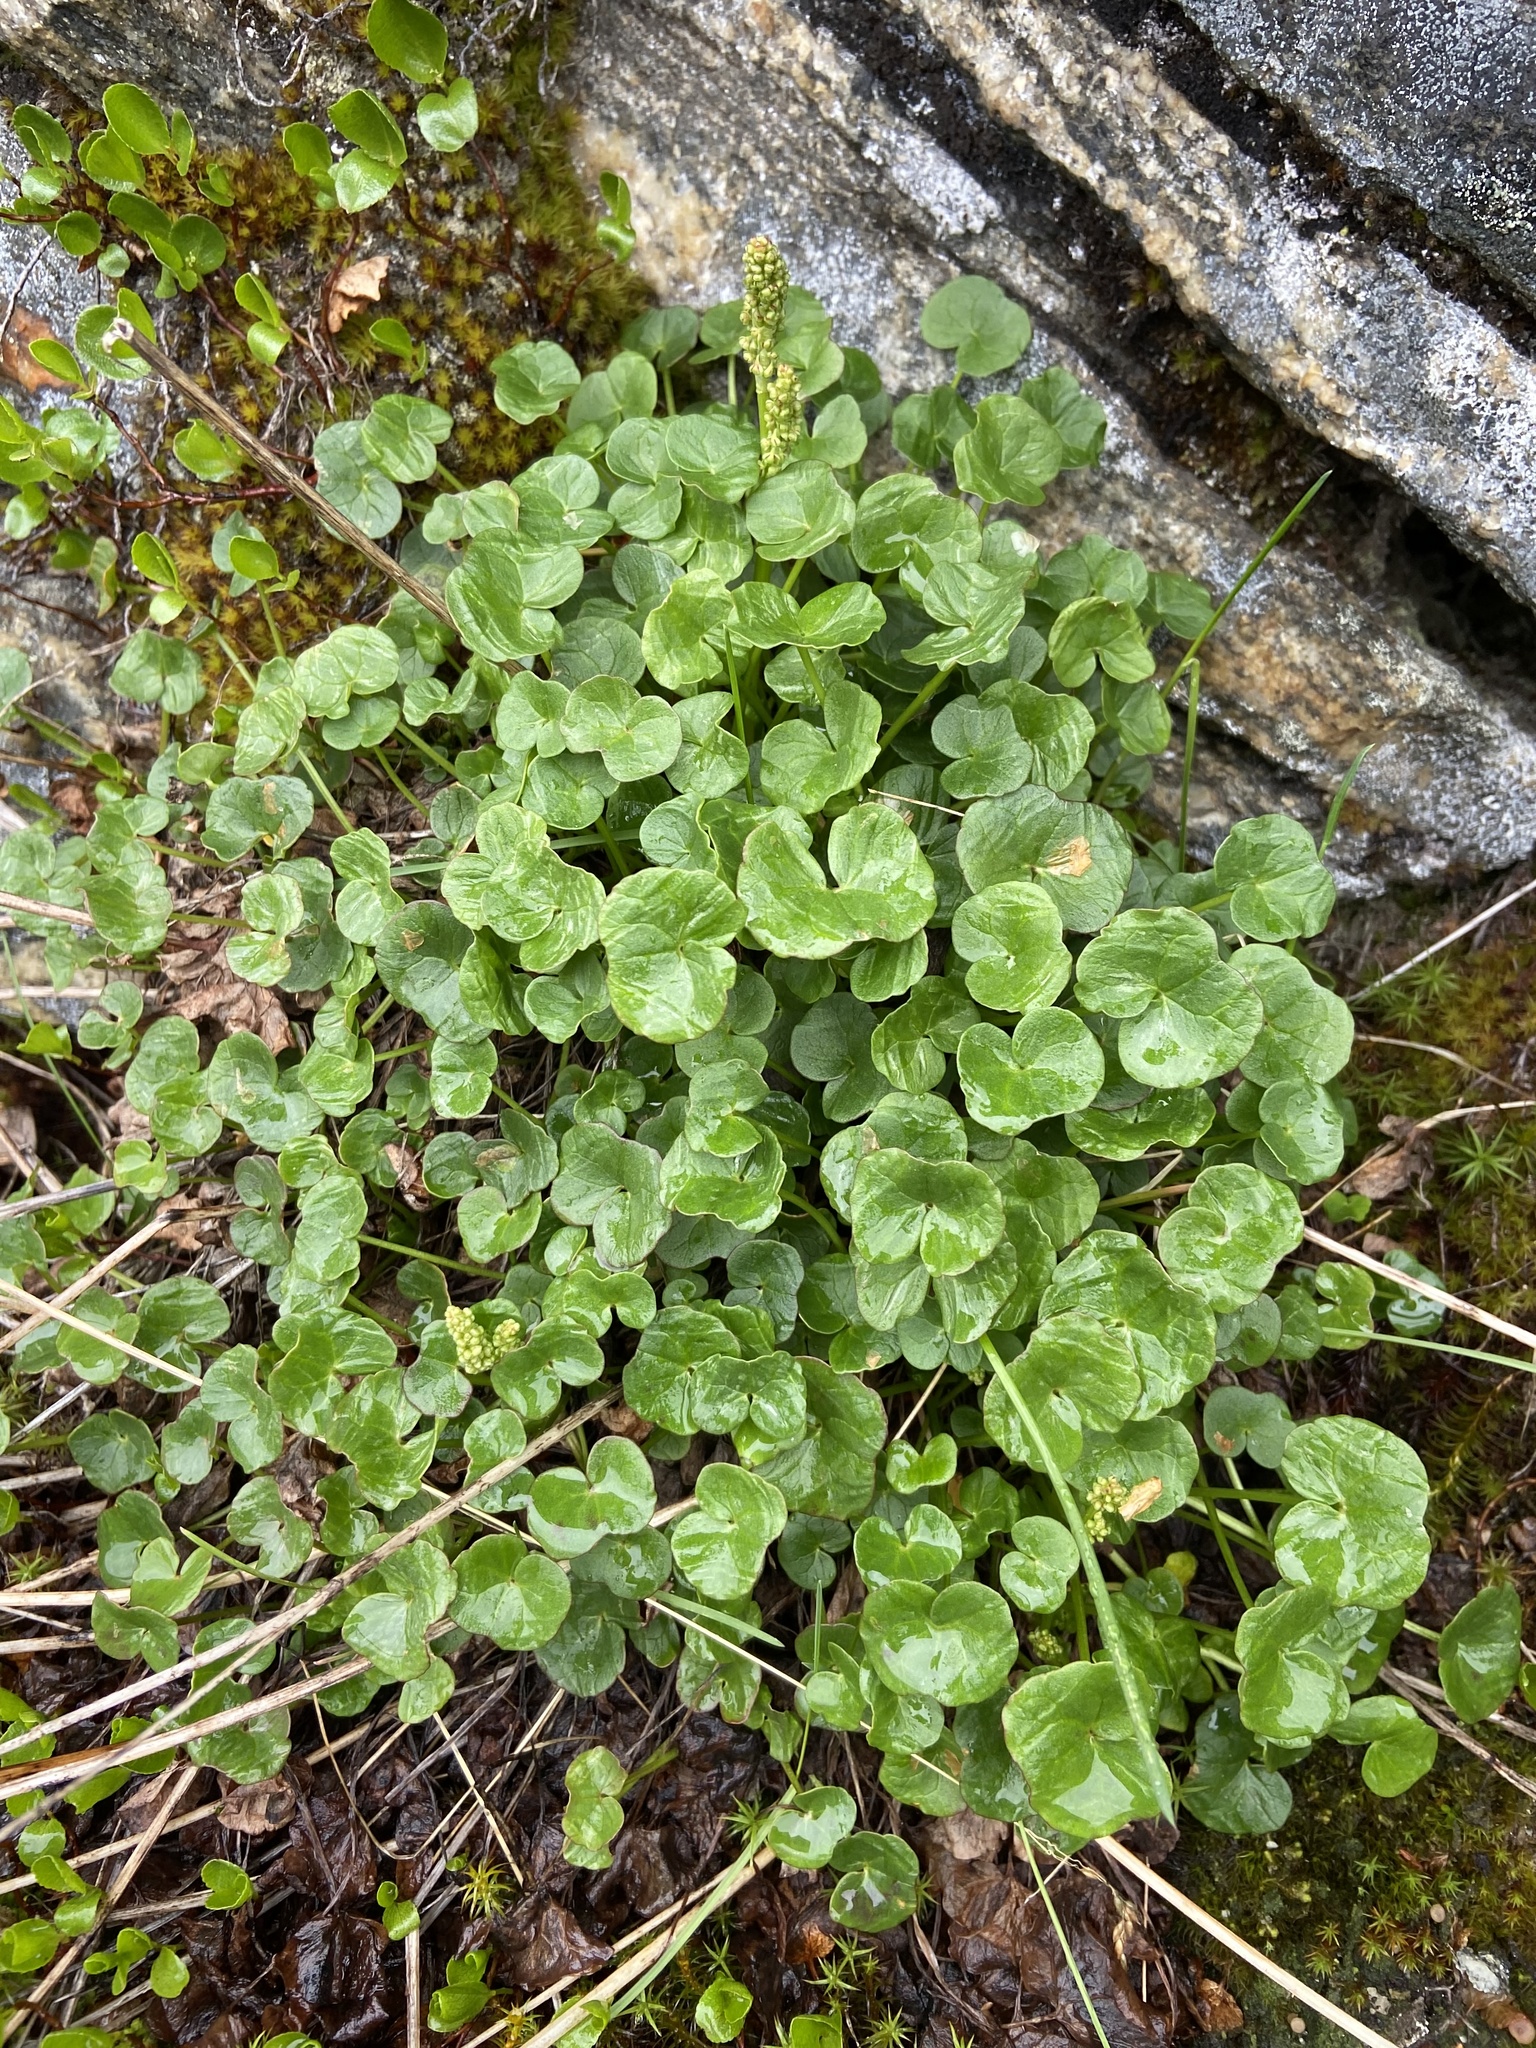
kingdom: Plantae
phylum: Tracheophyta
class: Magnoliopsida
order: Caryophyllales
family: Polygonaceae
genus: Oxyria
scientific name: Oxyria digyna
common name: Alpine mountain-sorrel
